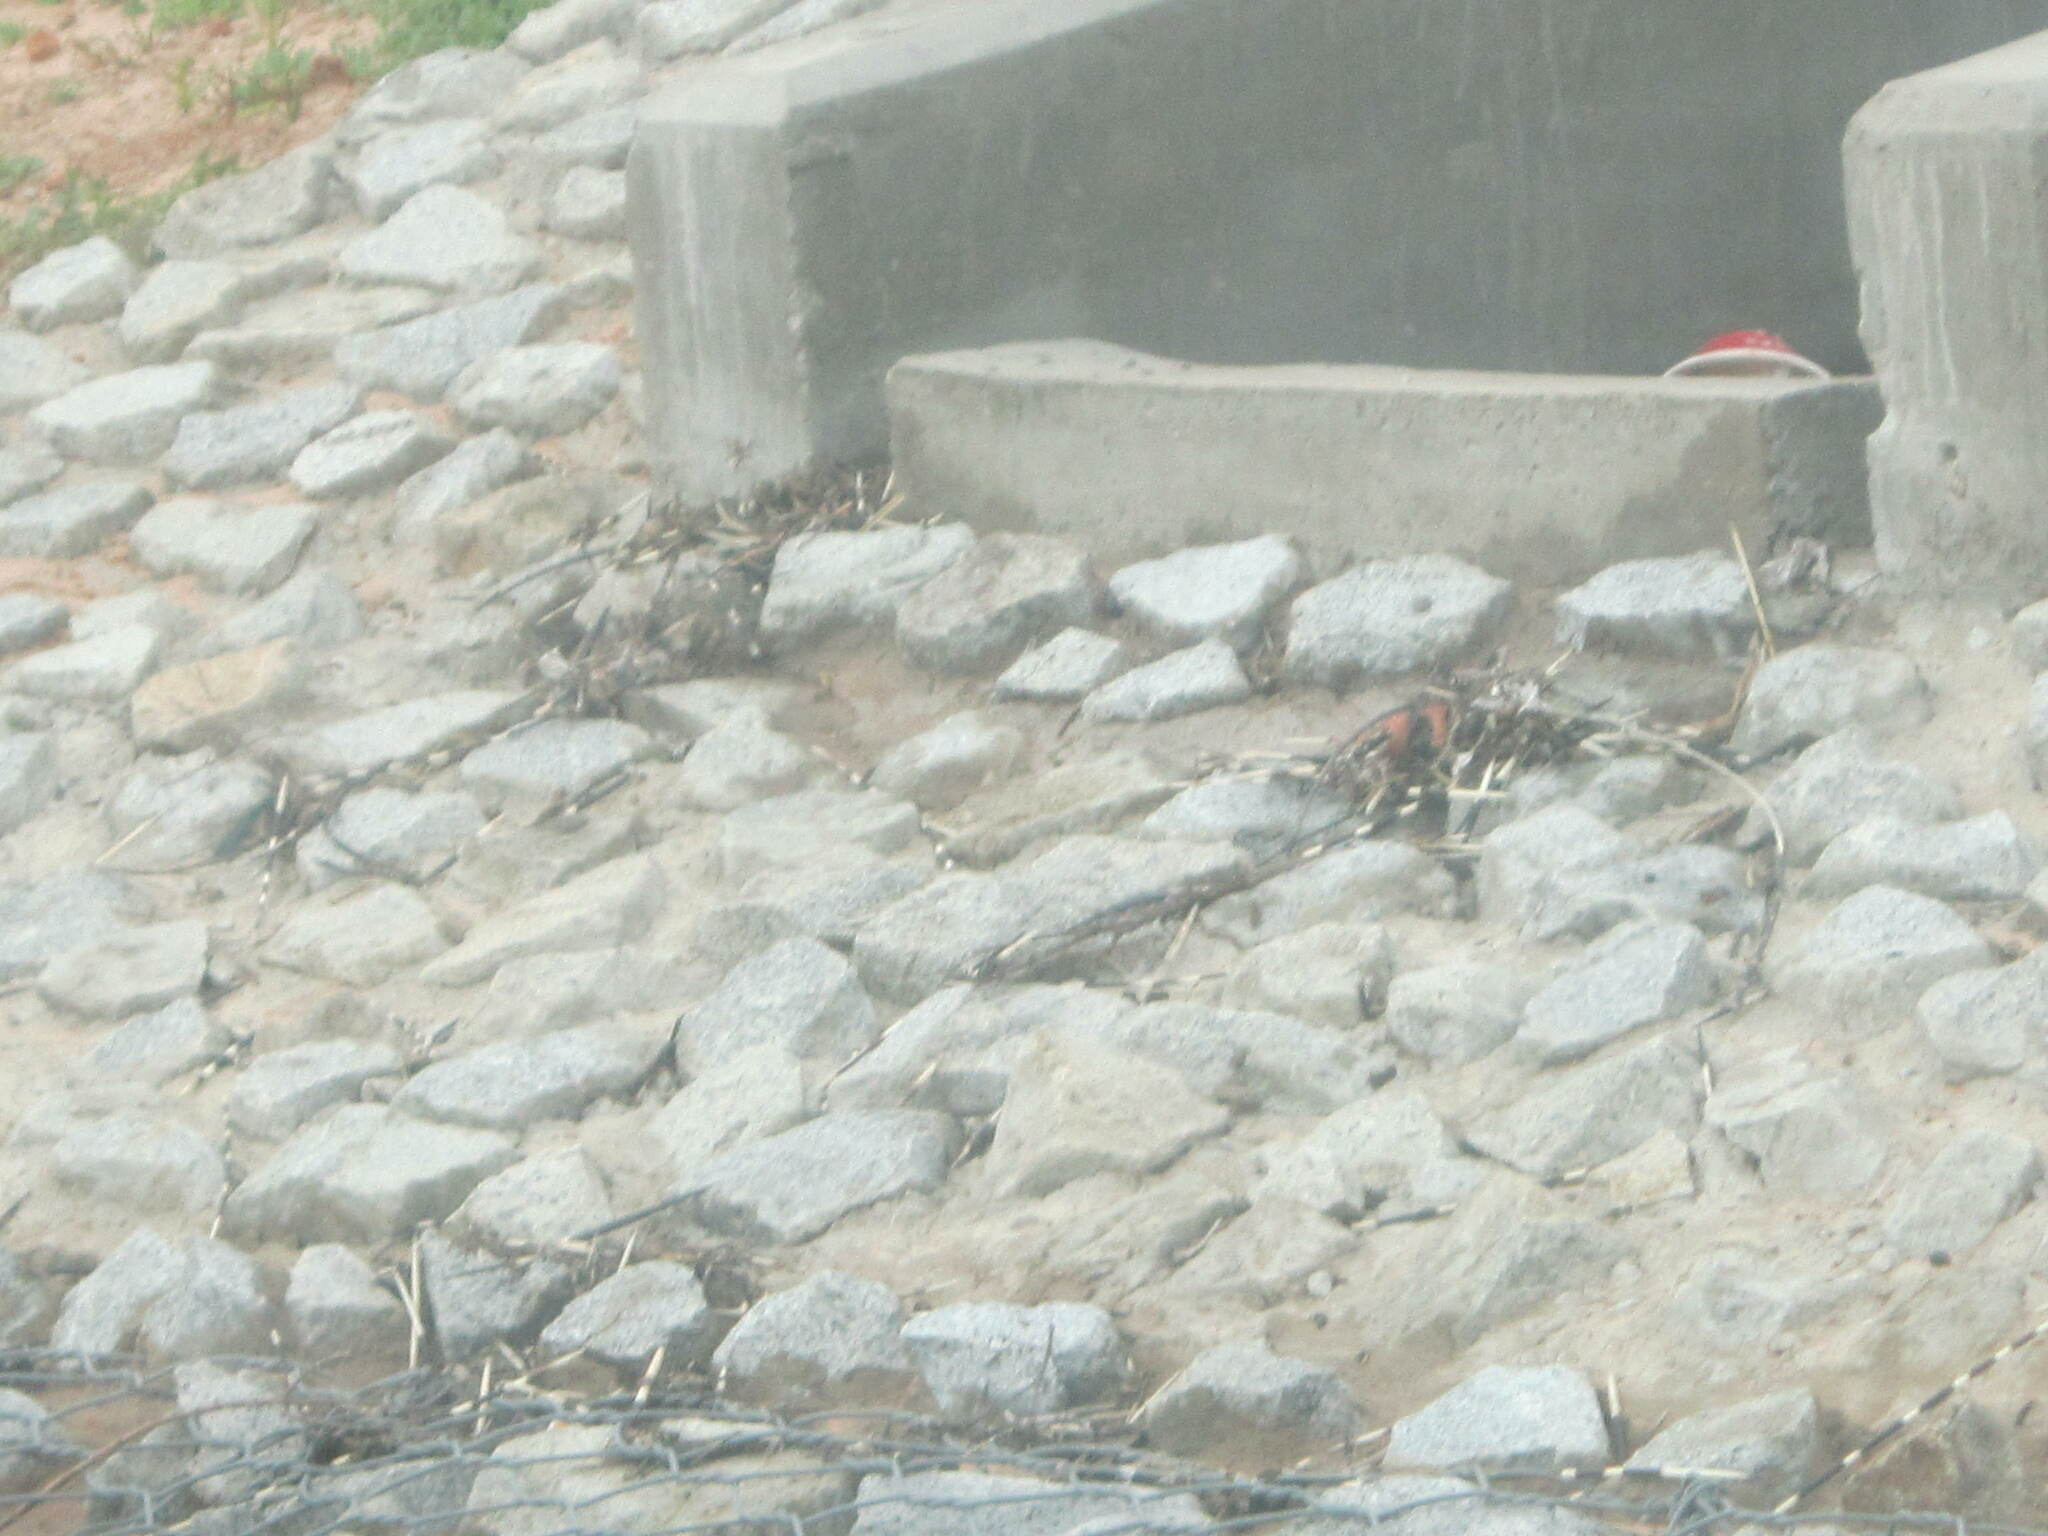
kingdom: Animalia
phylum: Chordata
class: Mammalia
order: Rodentia
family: Hystricidae
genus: Hystrix
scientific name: Hystrix africaeaustralis
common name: Cape porcupine
